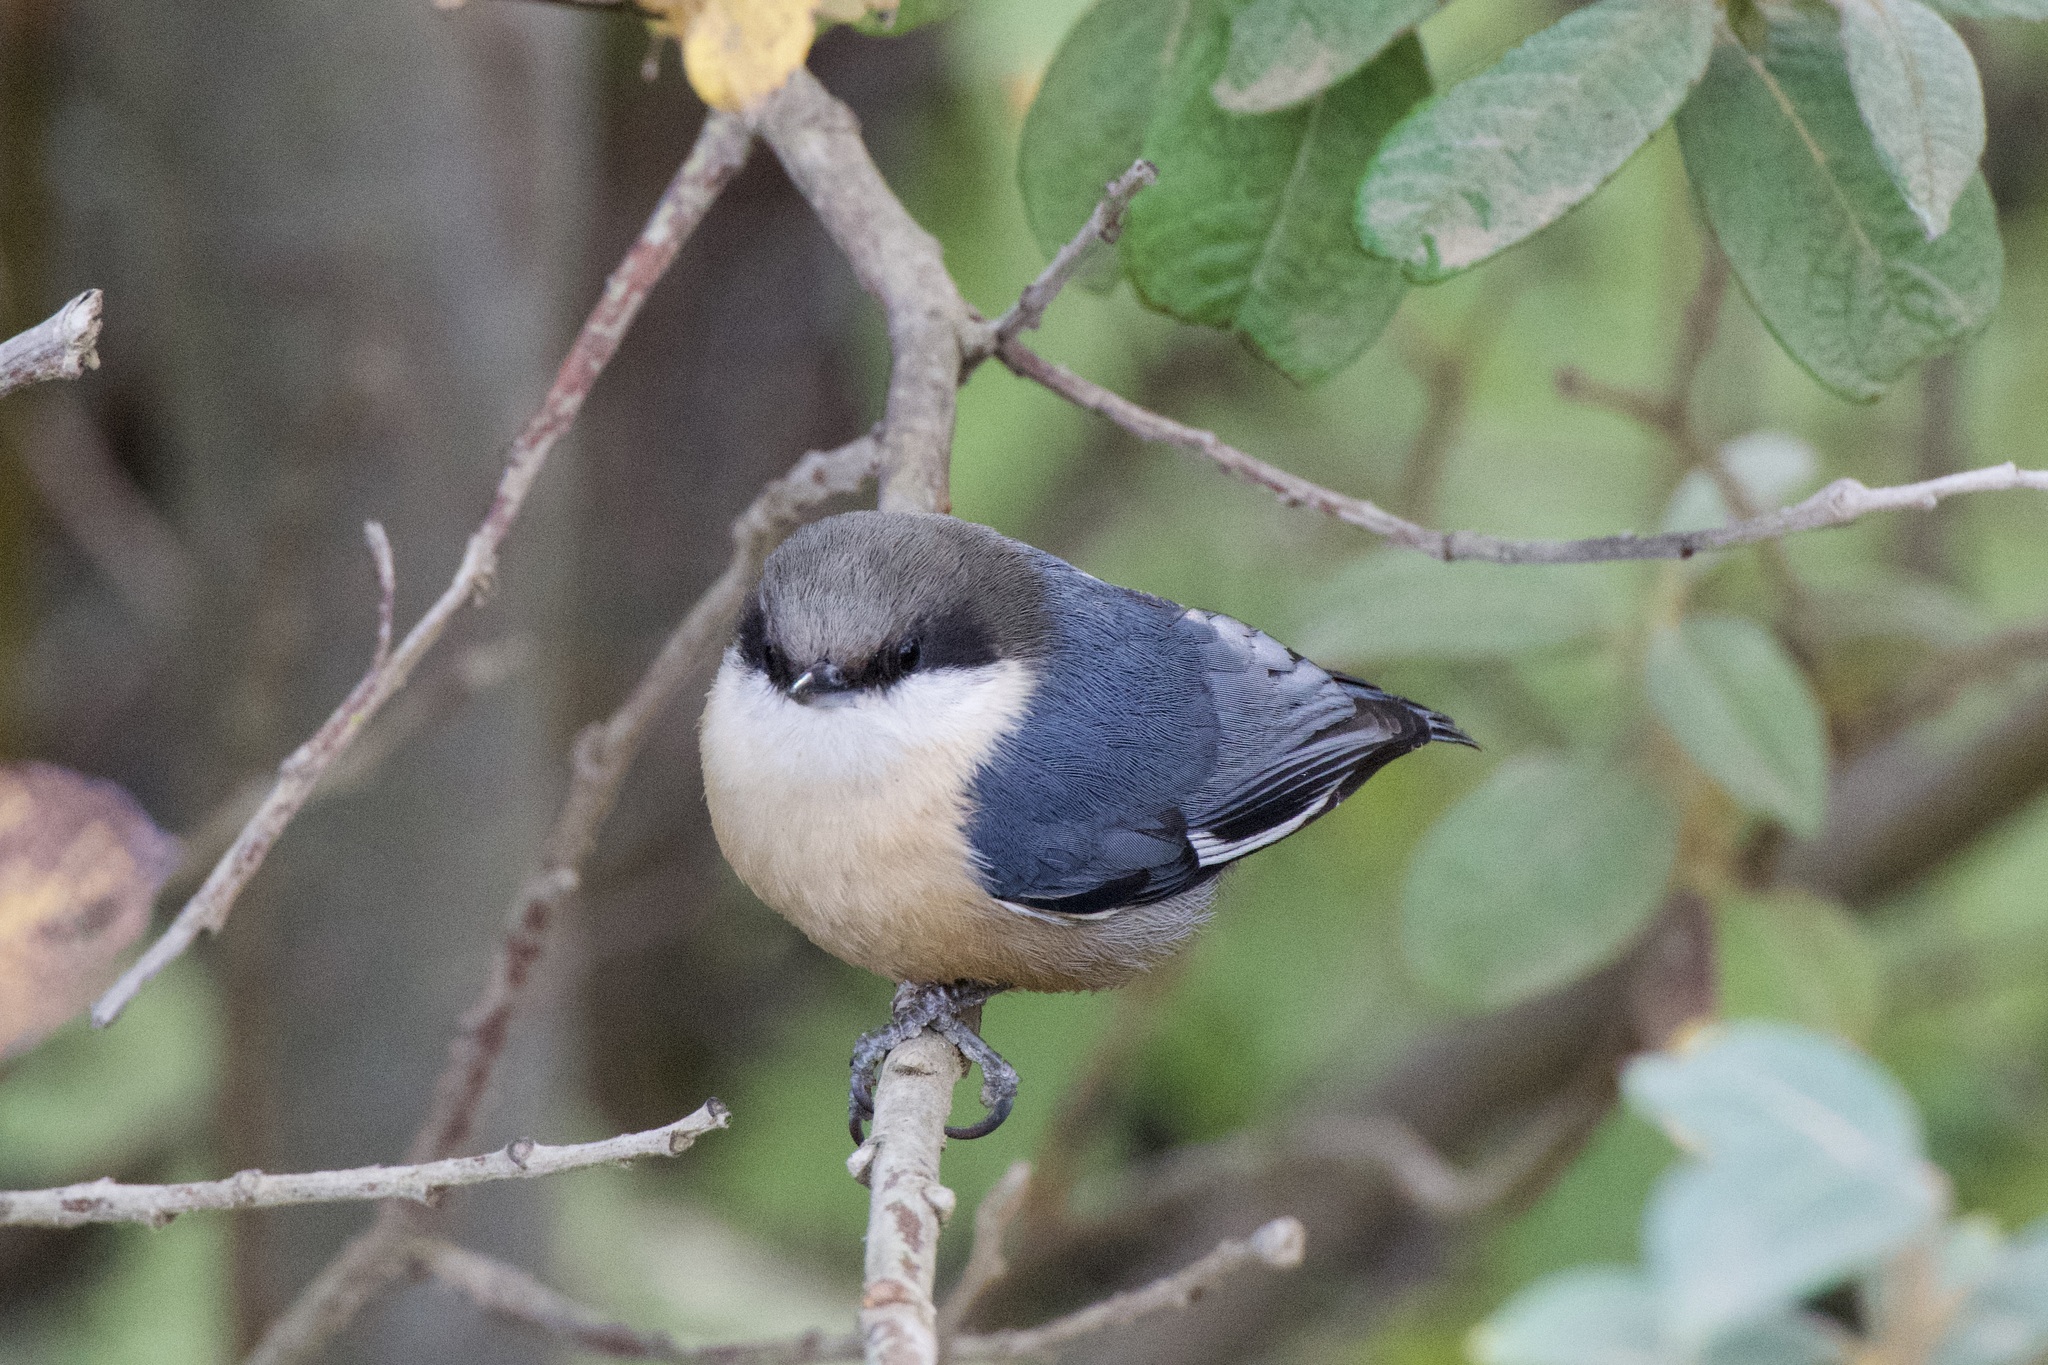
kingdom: Animalia
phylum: Chordata
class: Aves
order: Passeriformes
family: Sittidae
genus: Sitta
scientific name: Sitta pygmaea
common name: Pygmy nuthatch
